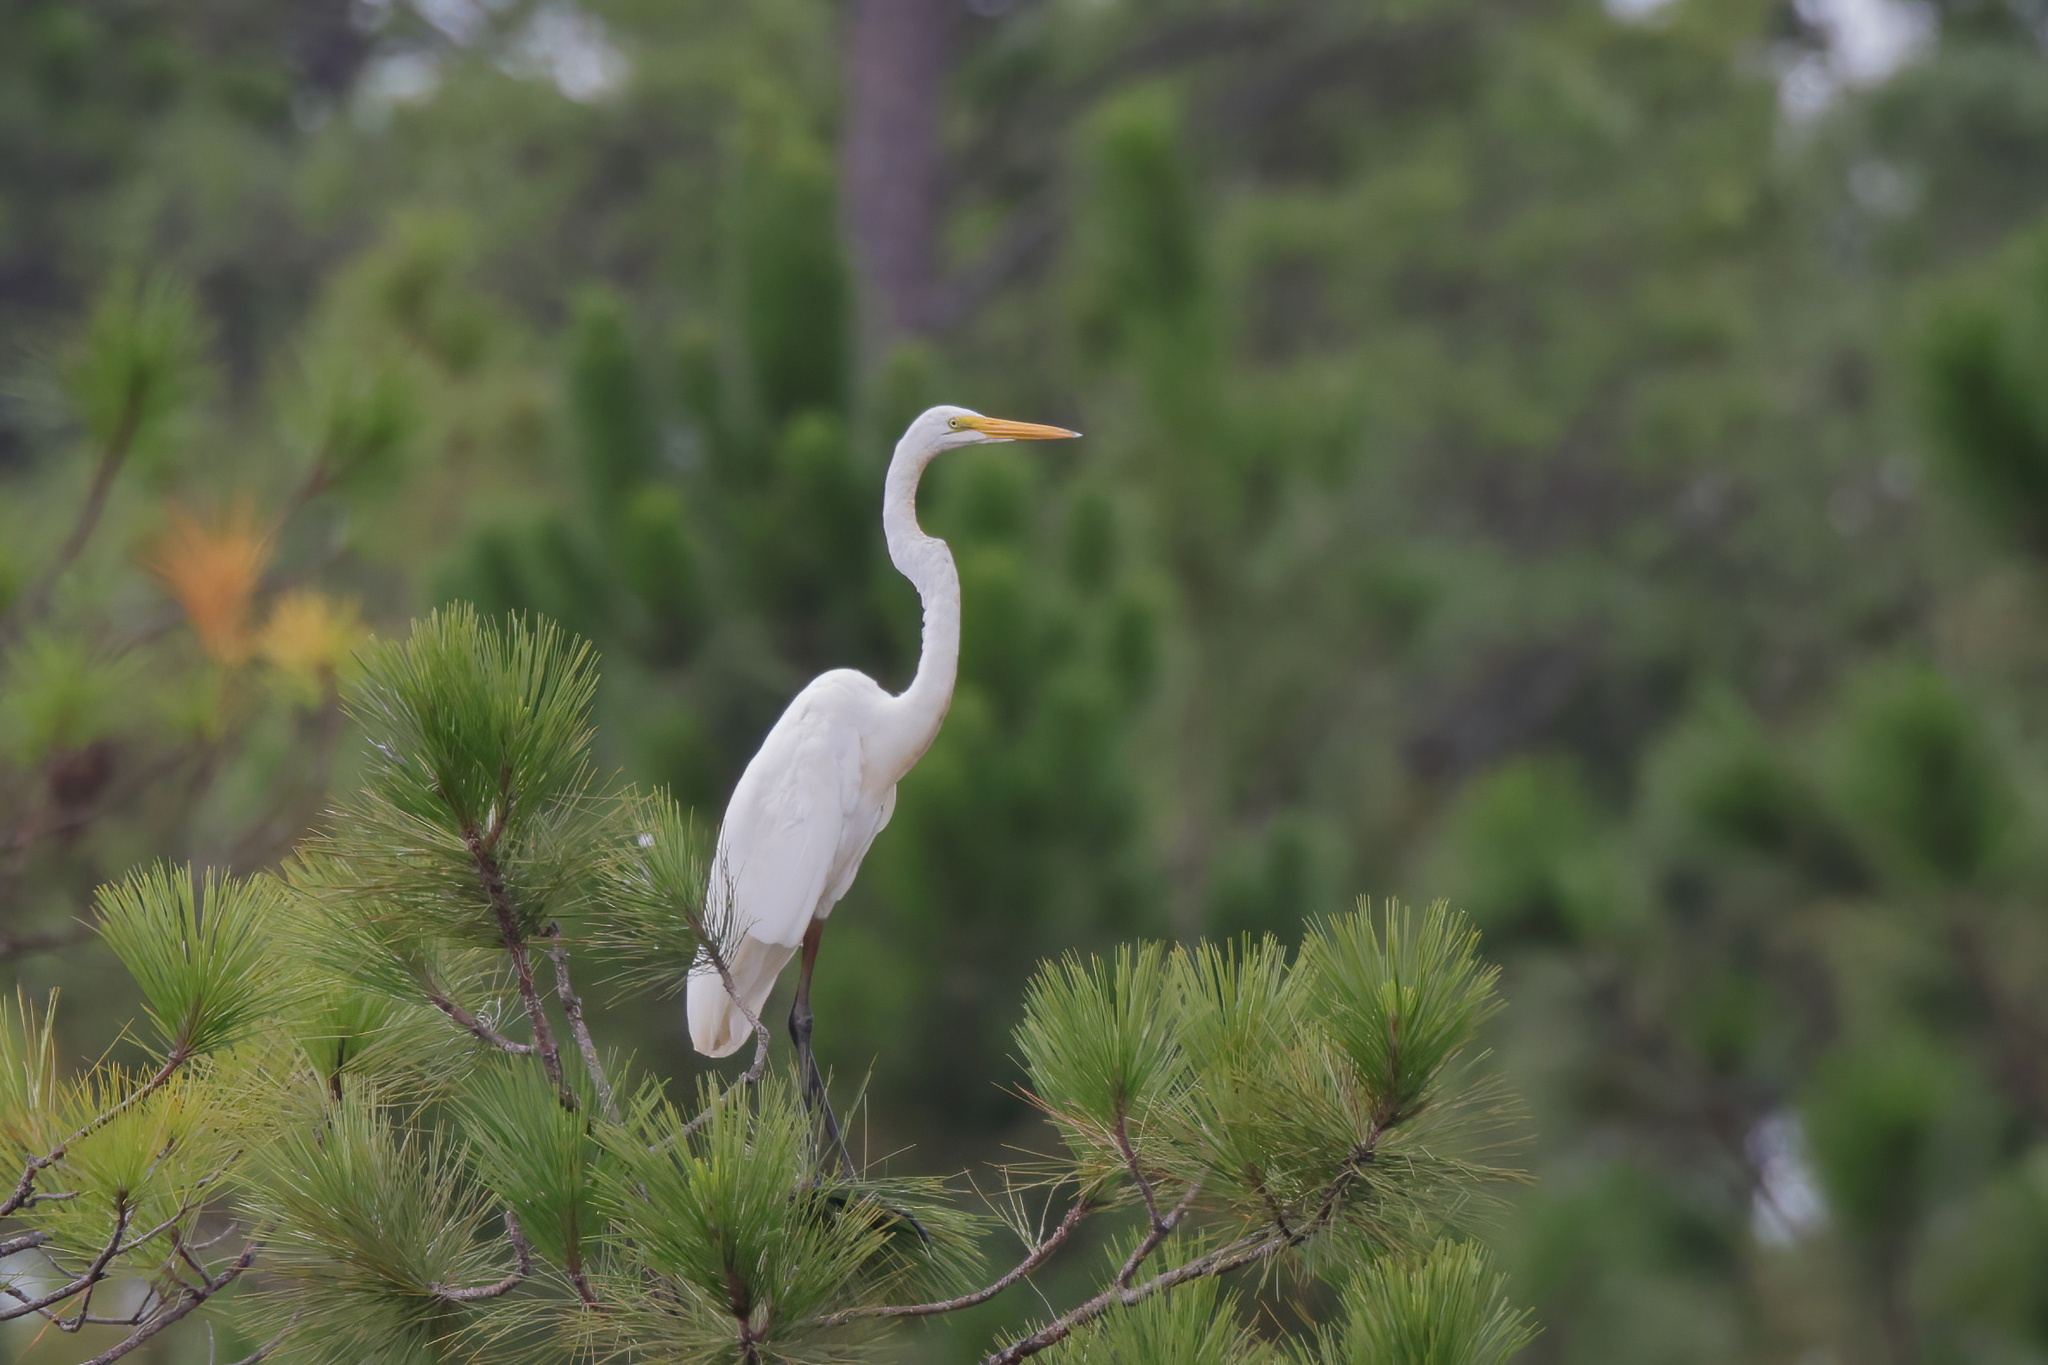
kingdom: Animalia
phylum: Chordata
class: Aves
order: Pelecaniformes
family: Ardeidae
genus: Ardea
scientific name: Ardea alba
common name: Great egret
